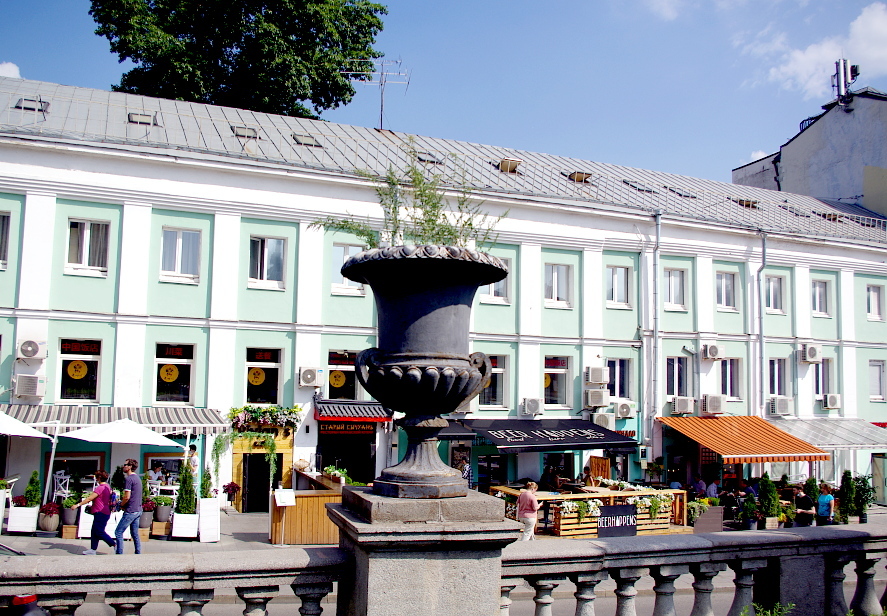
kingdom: Plantae
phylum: Tracheophyta
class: Magnoliopsida
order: Caryophyllales
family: Amaranthaceae
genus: Chenopodium
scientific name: Chenopodium album
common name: Fat-hen
